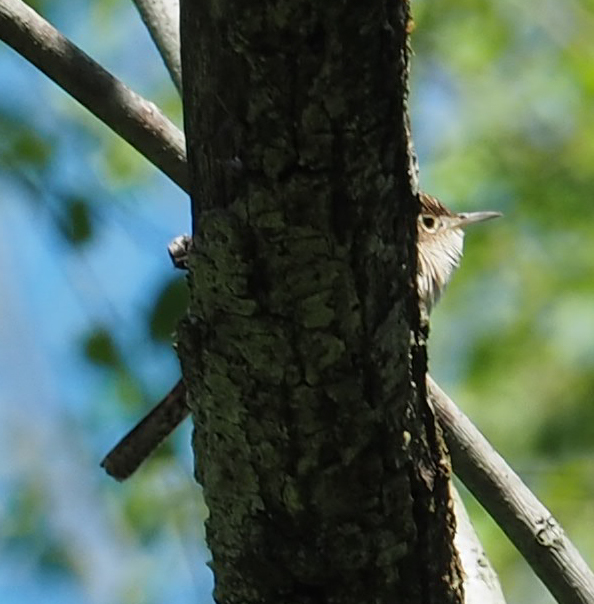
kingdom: Animalia
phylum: Chordata
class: Aves
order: Passeriformes
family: Troglodytidae
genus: Troglodytes
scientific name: Troglodytes aedon
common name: House wren
